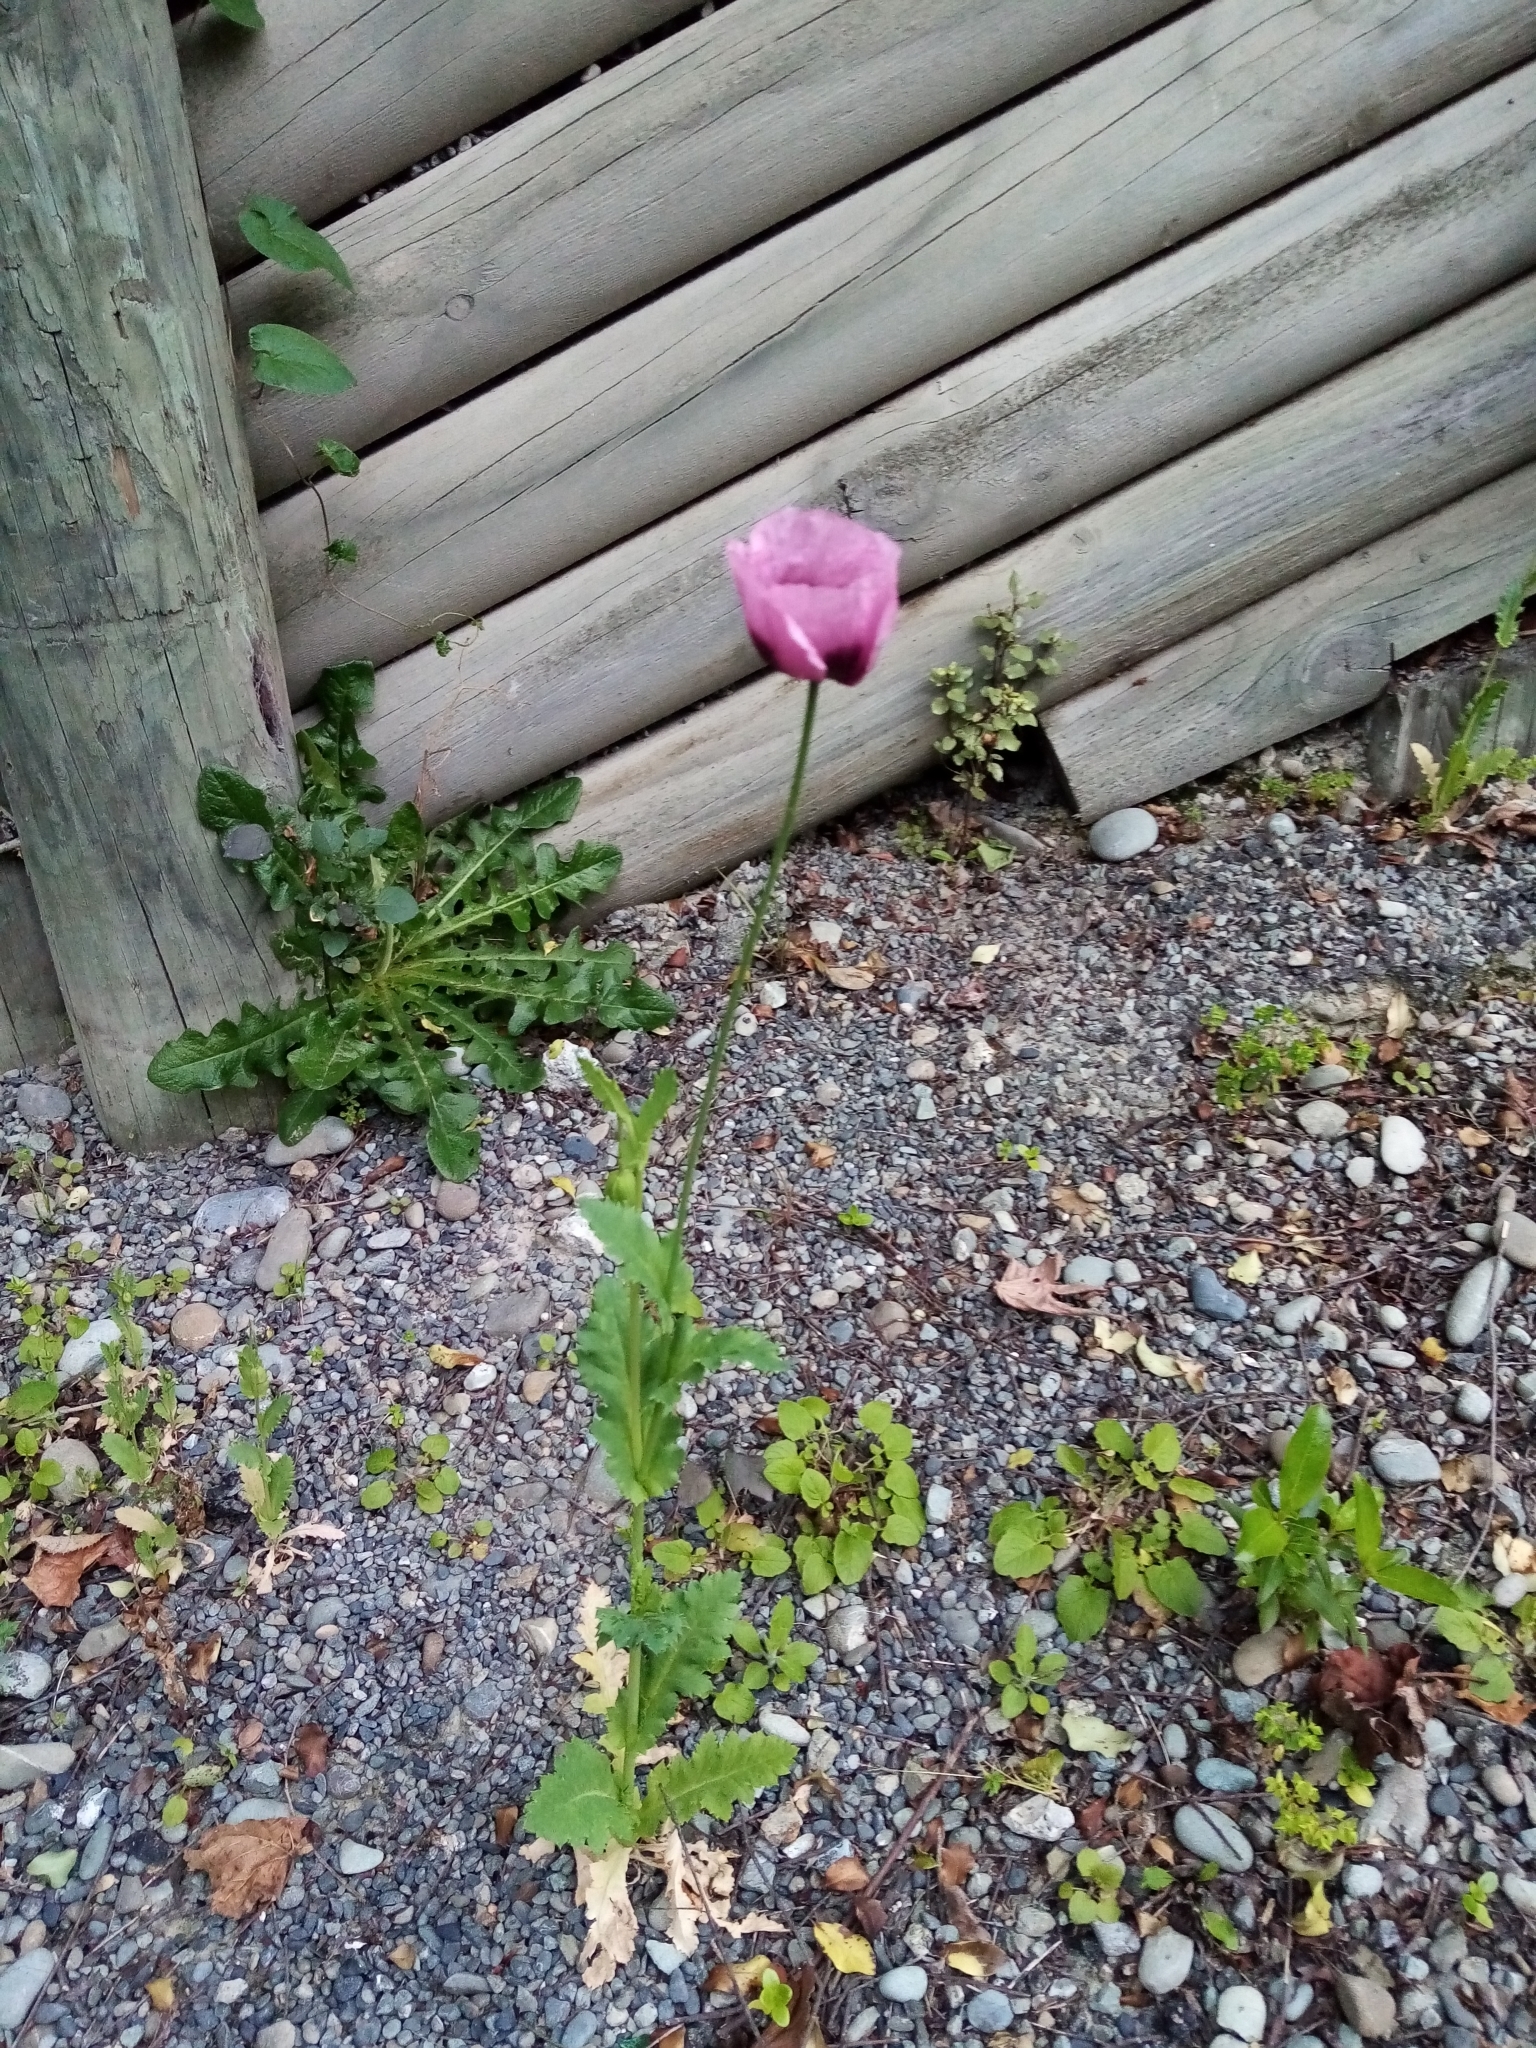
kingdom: Plantae
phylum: Tracheophyta
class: Magnoliopsida
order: Ranunculales
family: Papaveraceae
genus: Papaver
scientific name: Papaver somniferum
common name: Opium poppy
